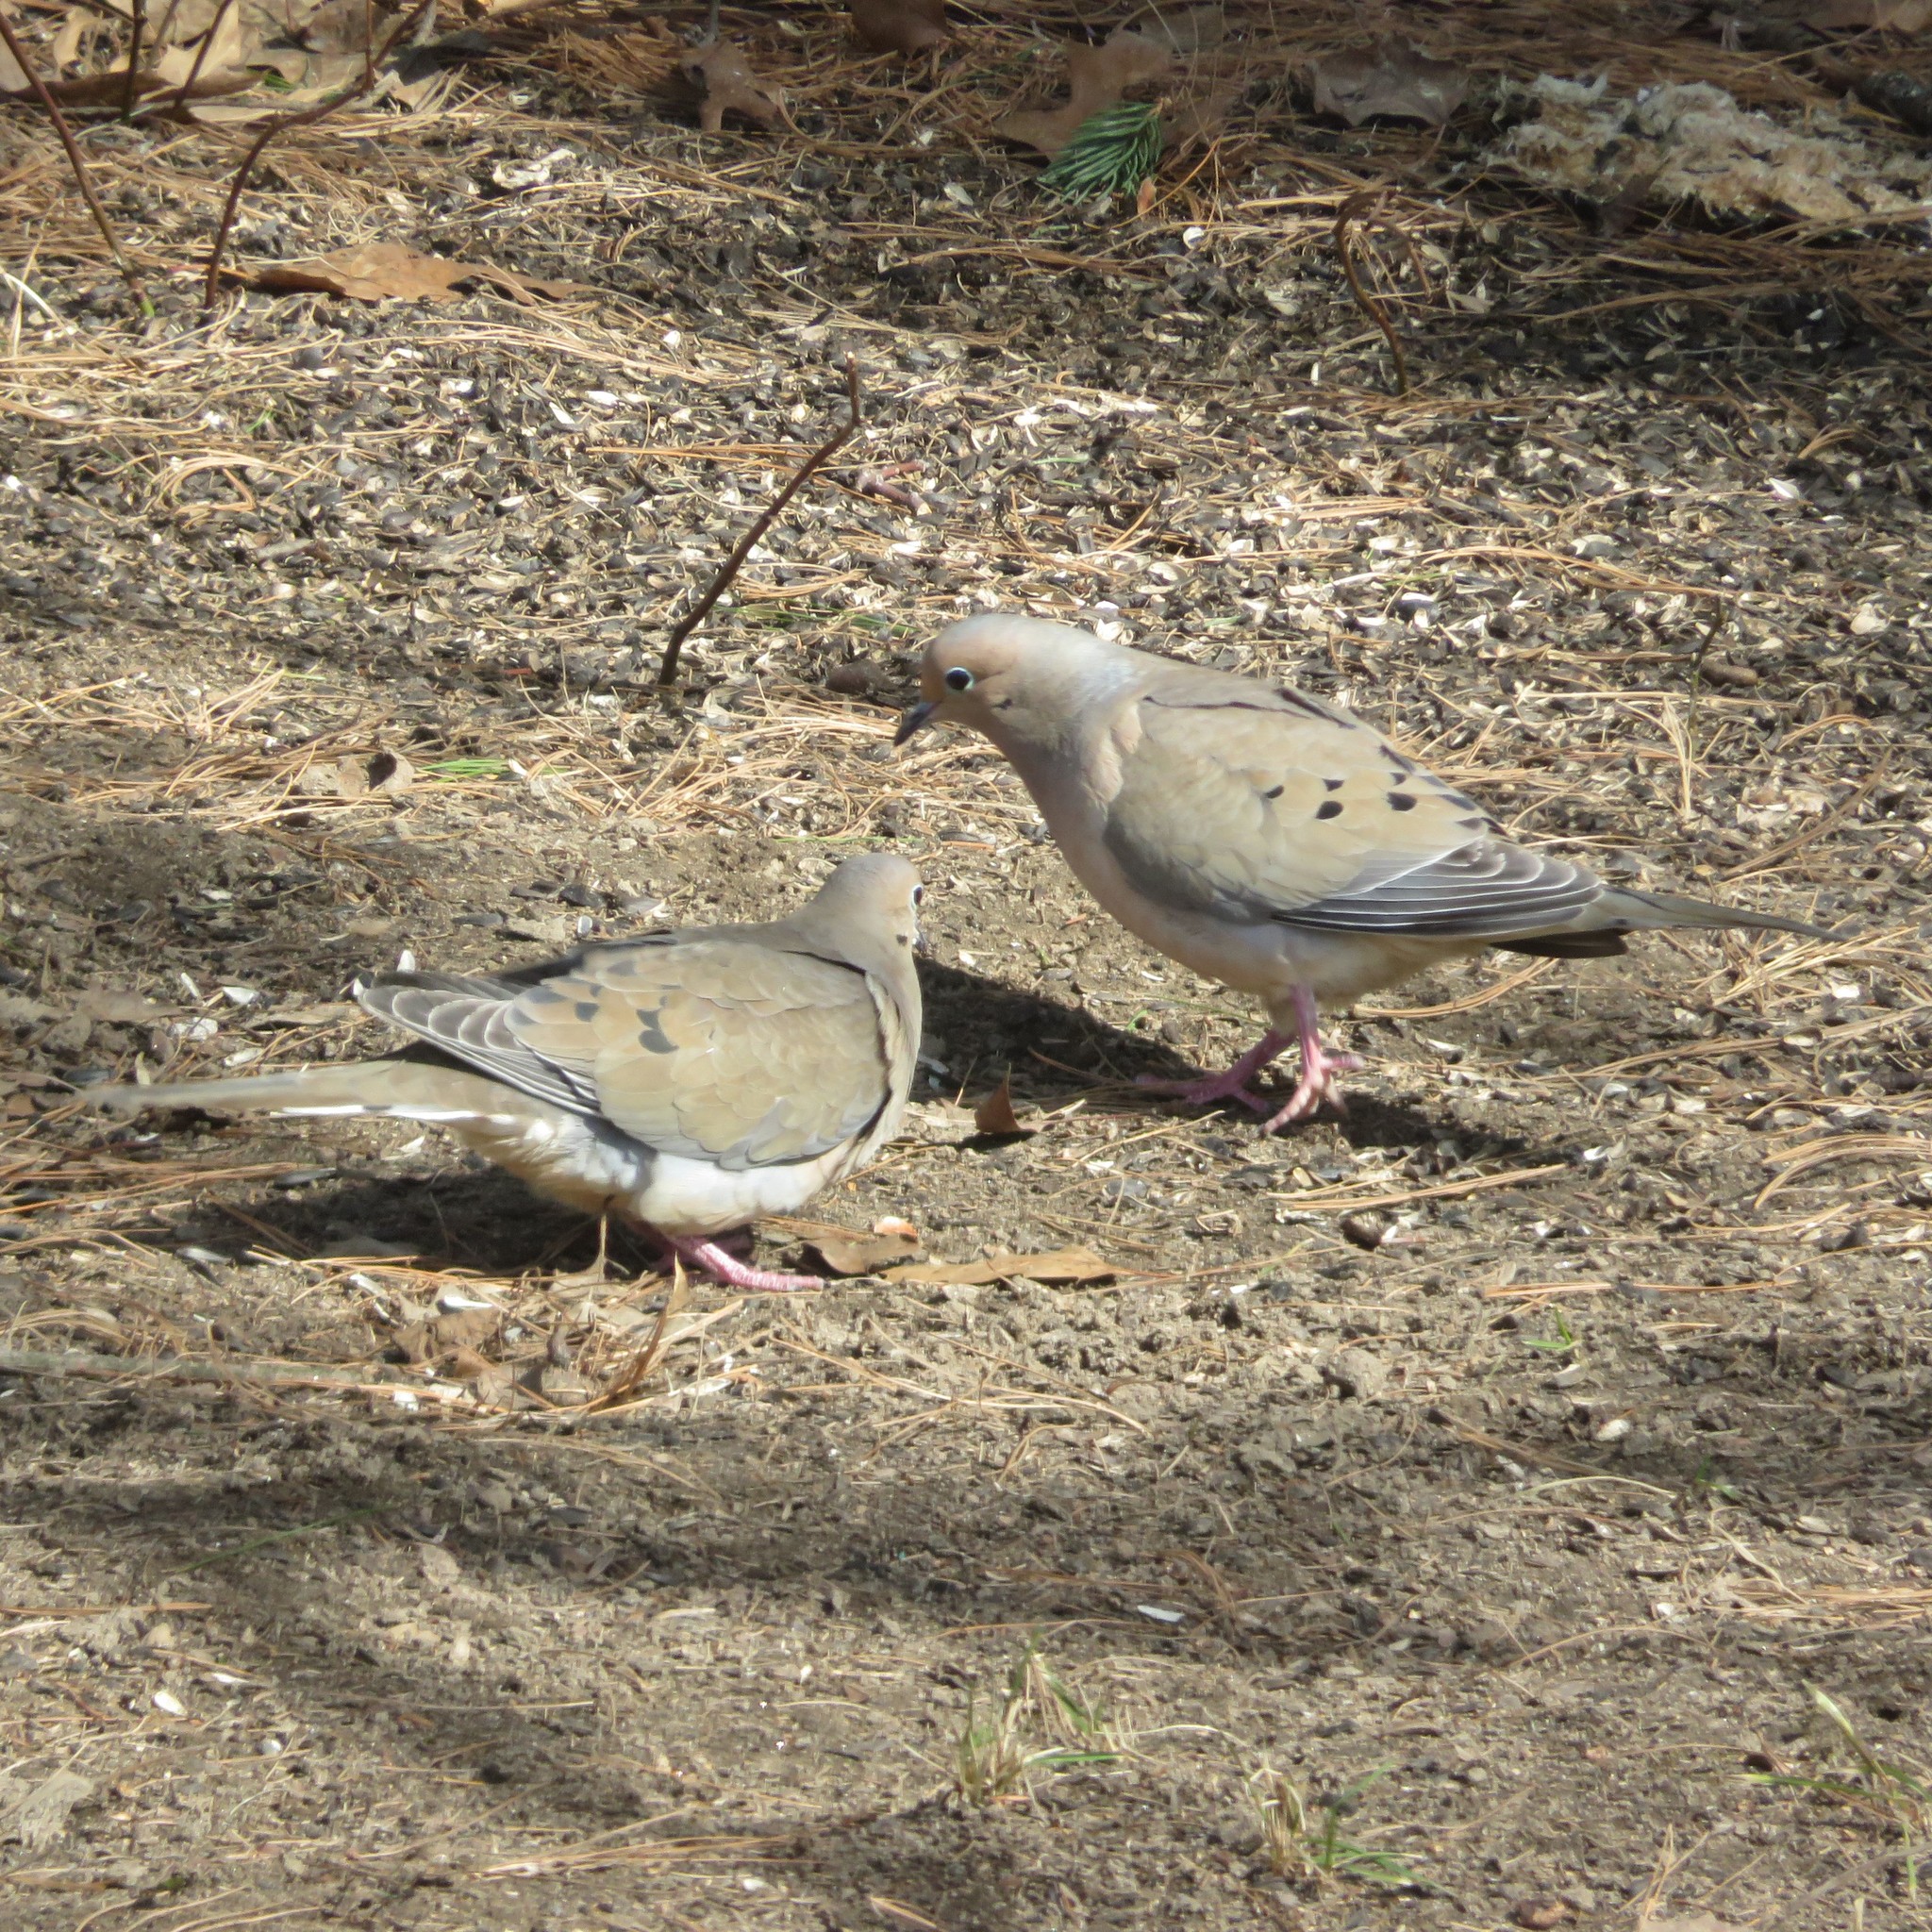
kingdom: Animalia
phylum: Chordata
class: Aves
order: Columbiformes
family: Columbidae
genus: Zenaida
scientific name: Zenaida macroura
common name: Mourning dove
